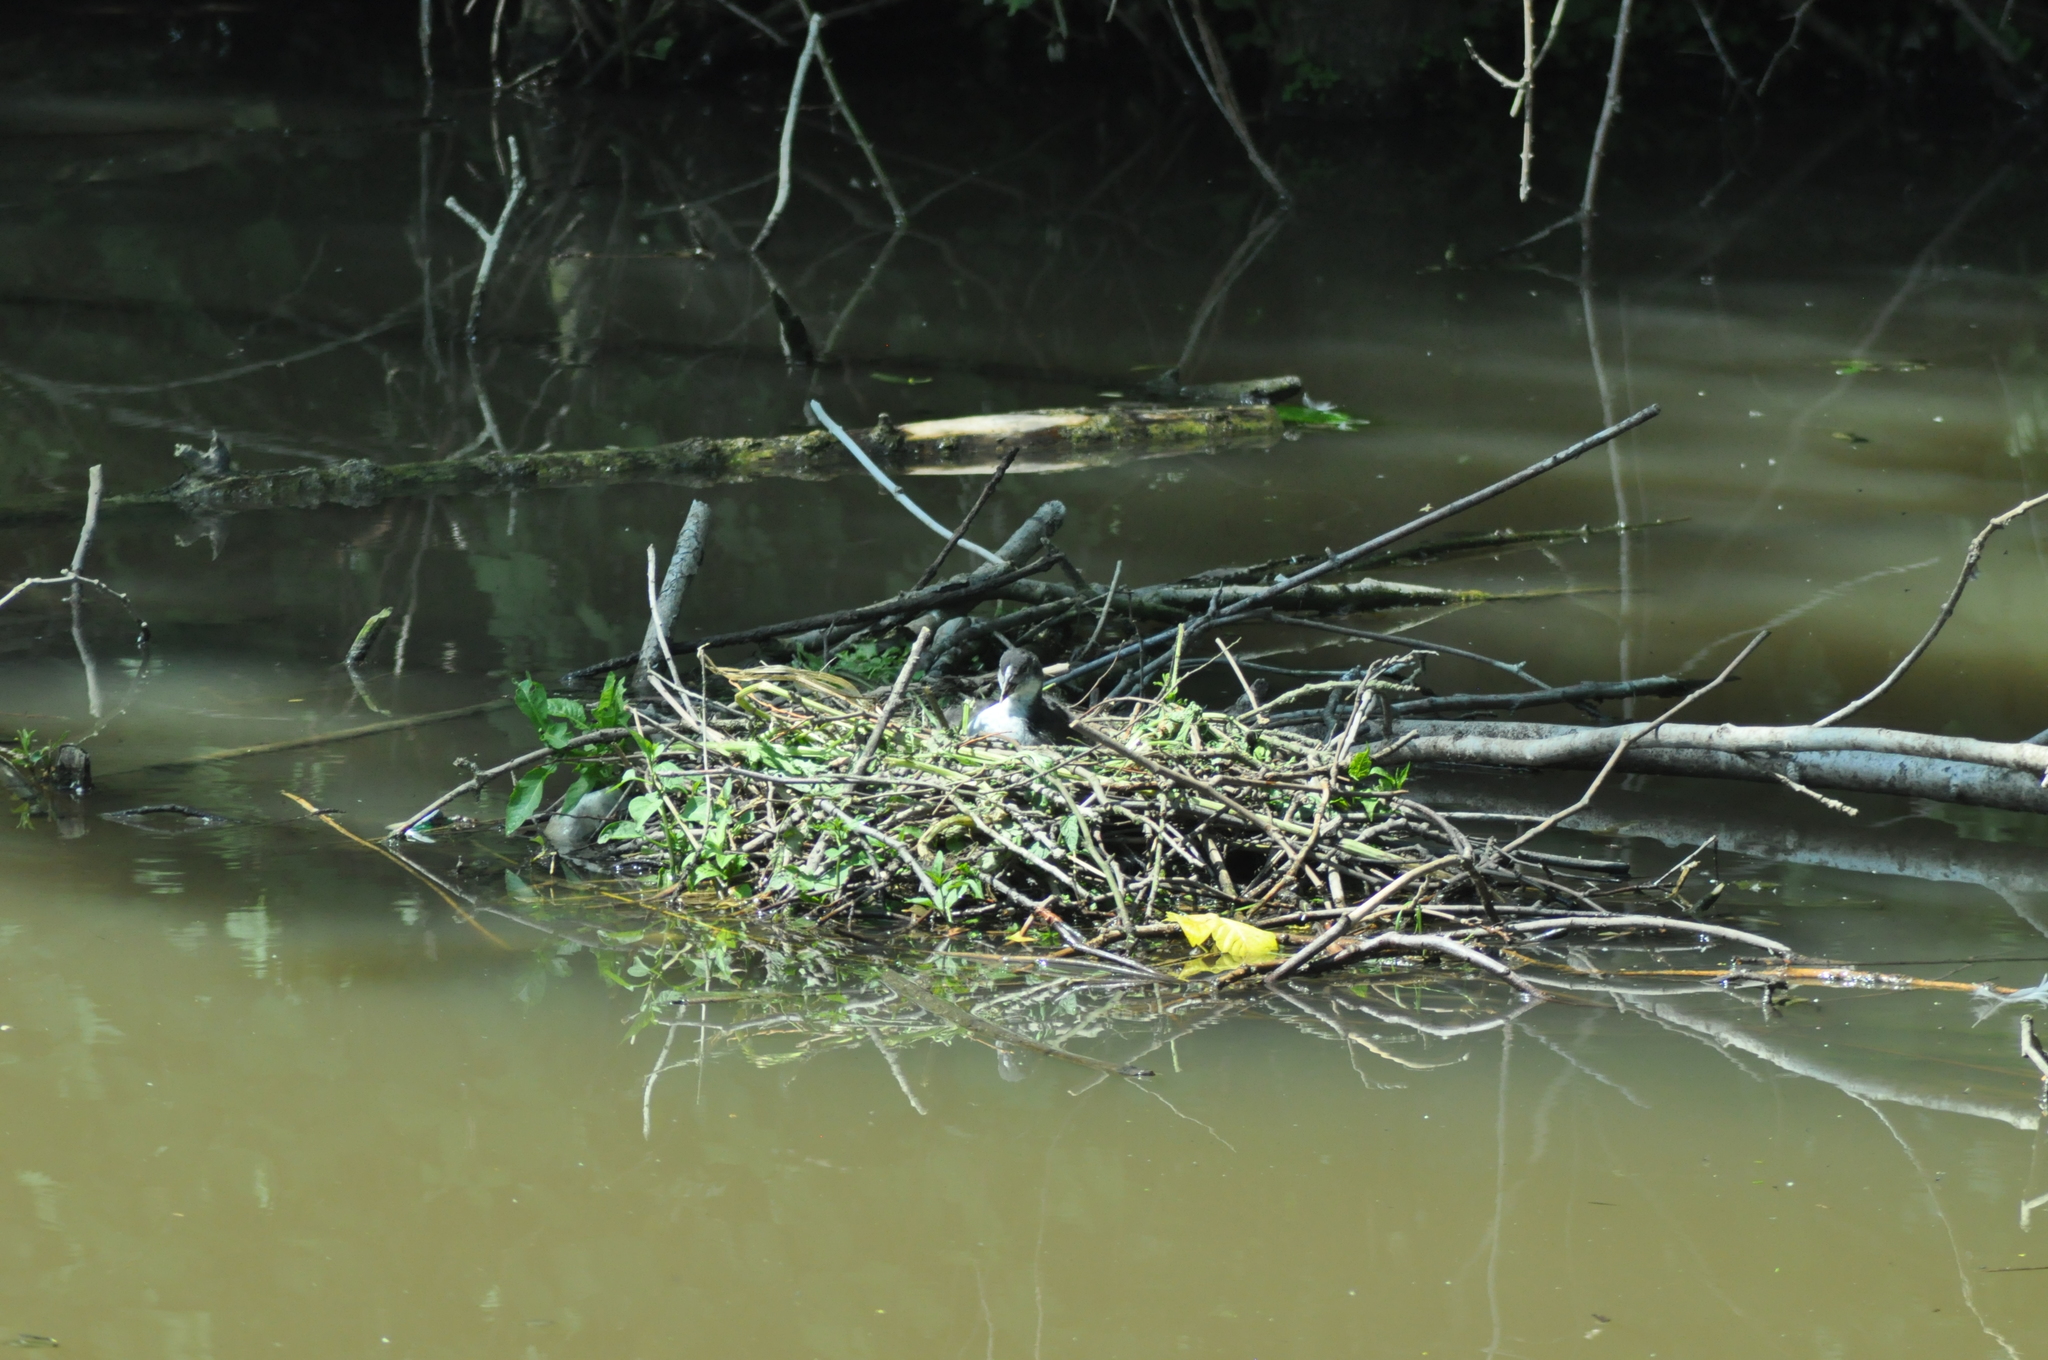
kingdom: Animalia
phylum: Chordata
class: Aves
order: Gruiformes
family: Rallidae
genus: Fulica
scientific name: Fulica atra
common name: Eurasian coot
